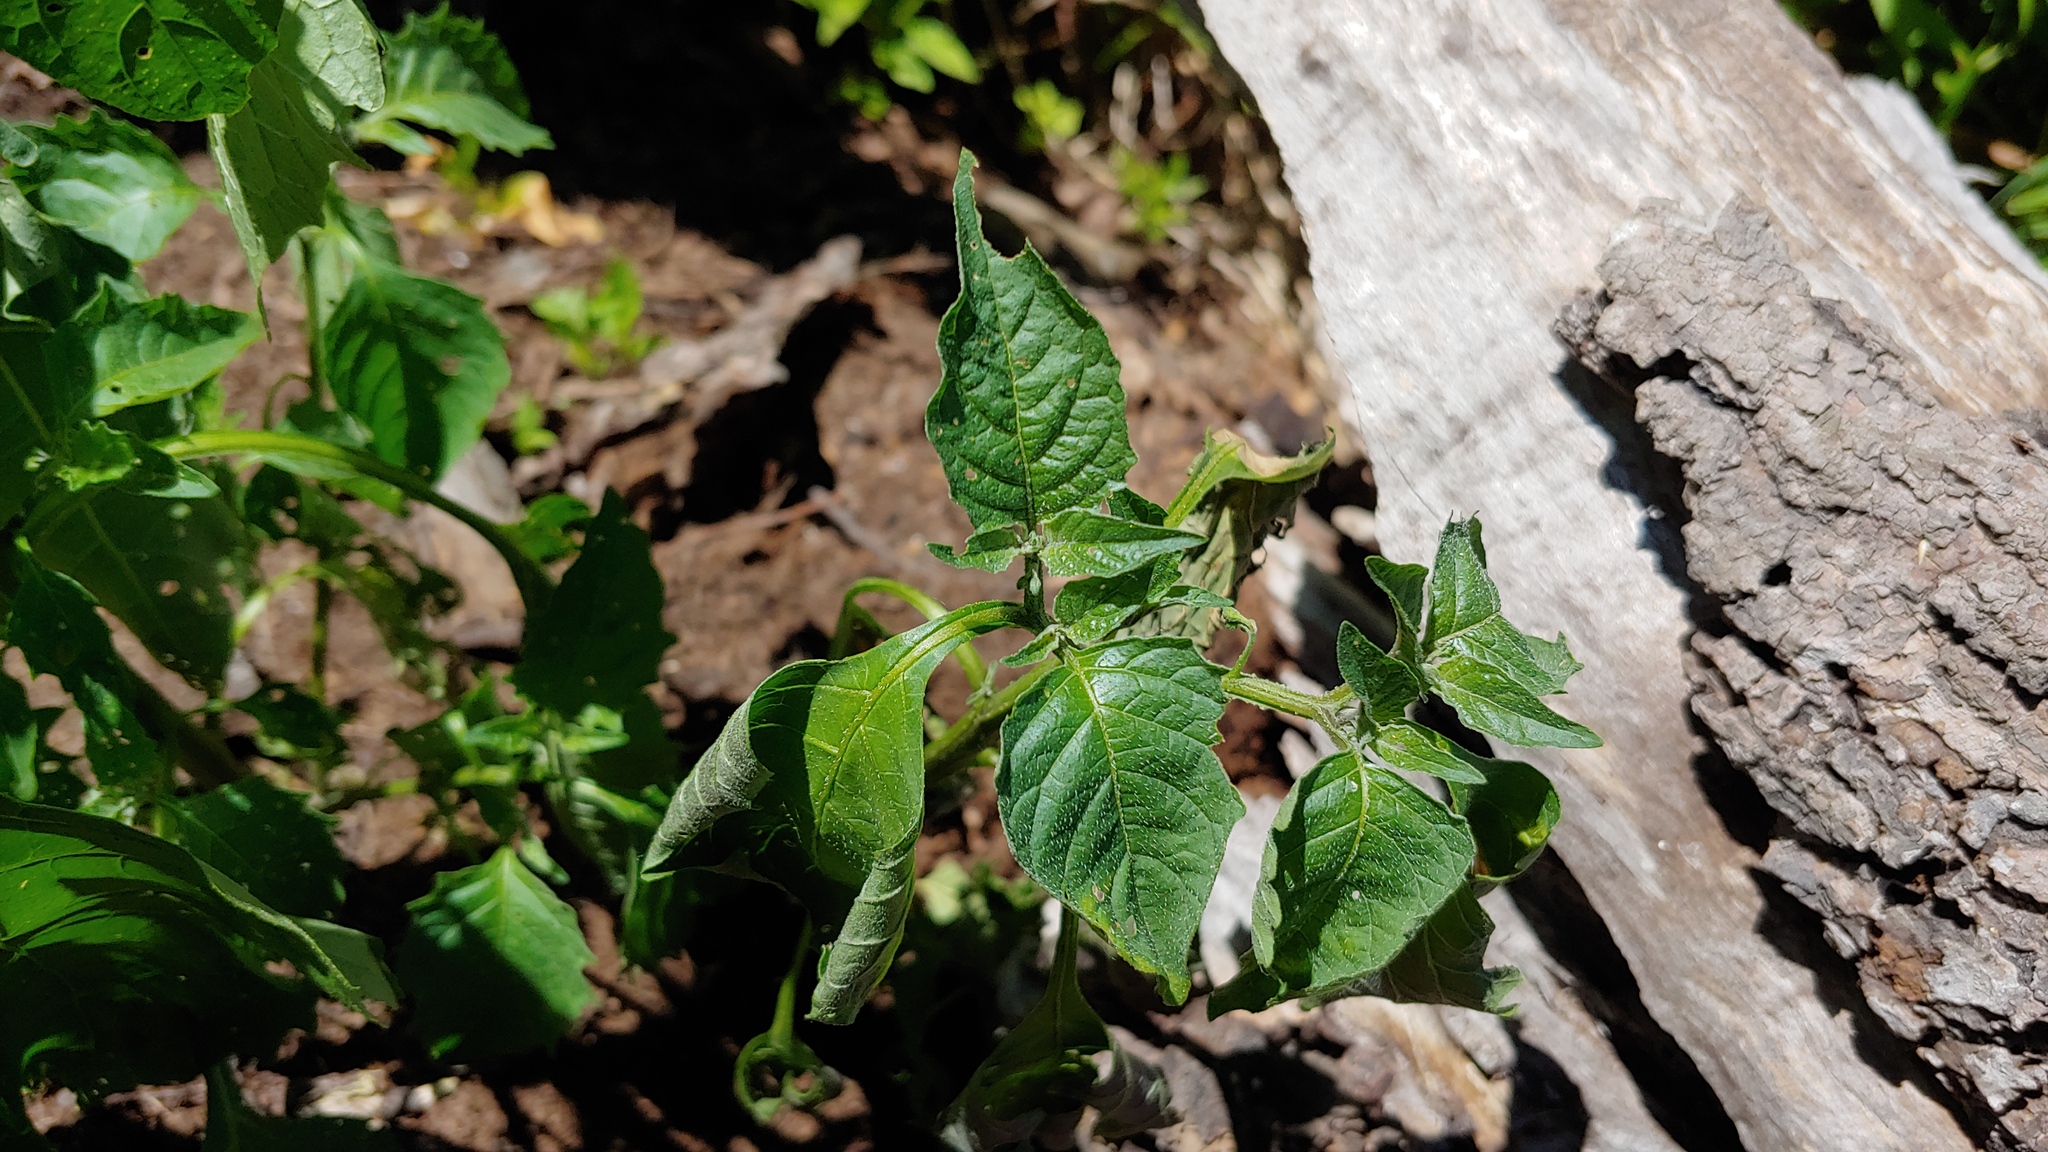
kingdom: Plantae
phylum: Tracheophyta
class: Magnoliopsida
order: Solanales
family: Solanaceae
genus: Solanum
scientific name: Solanum emulans
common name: Eastern black nightshade
